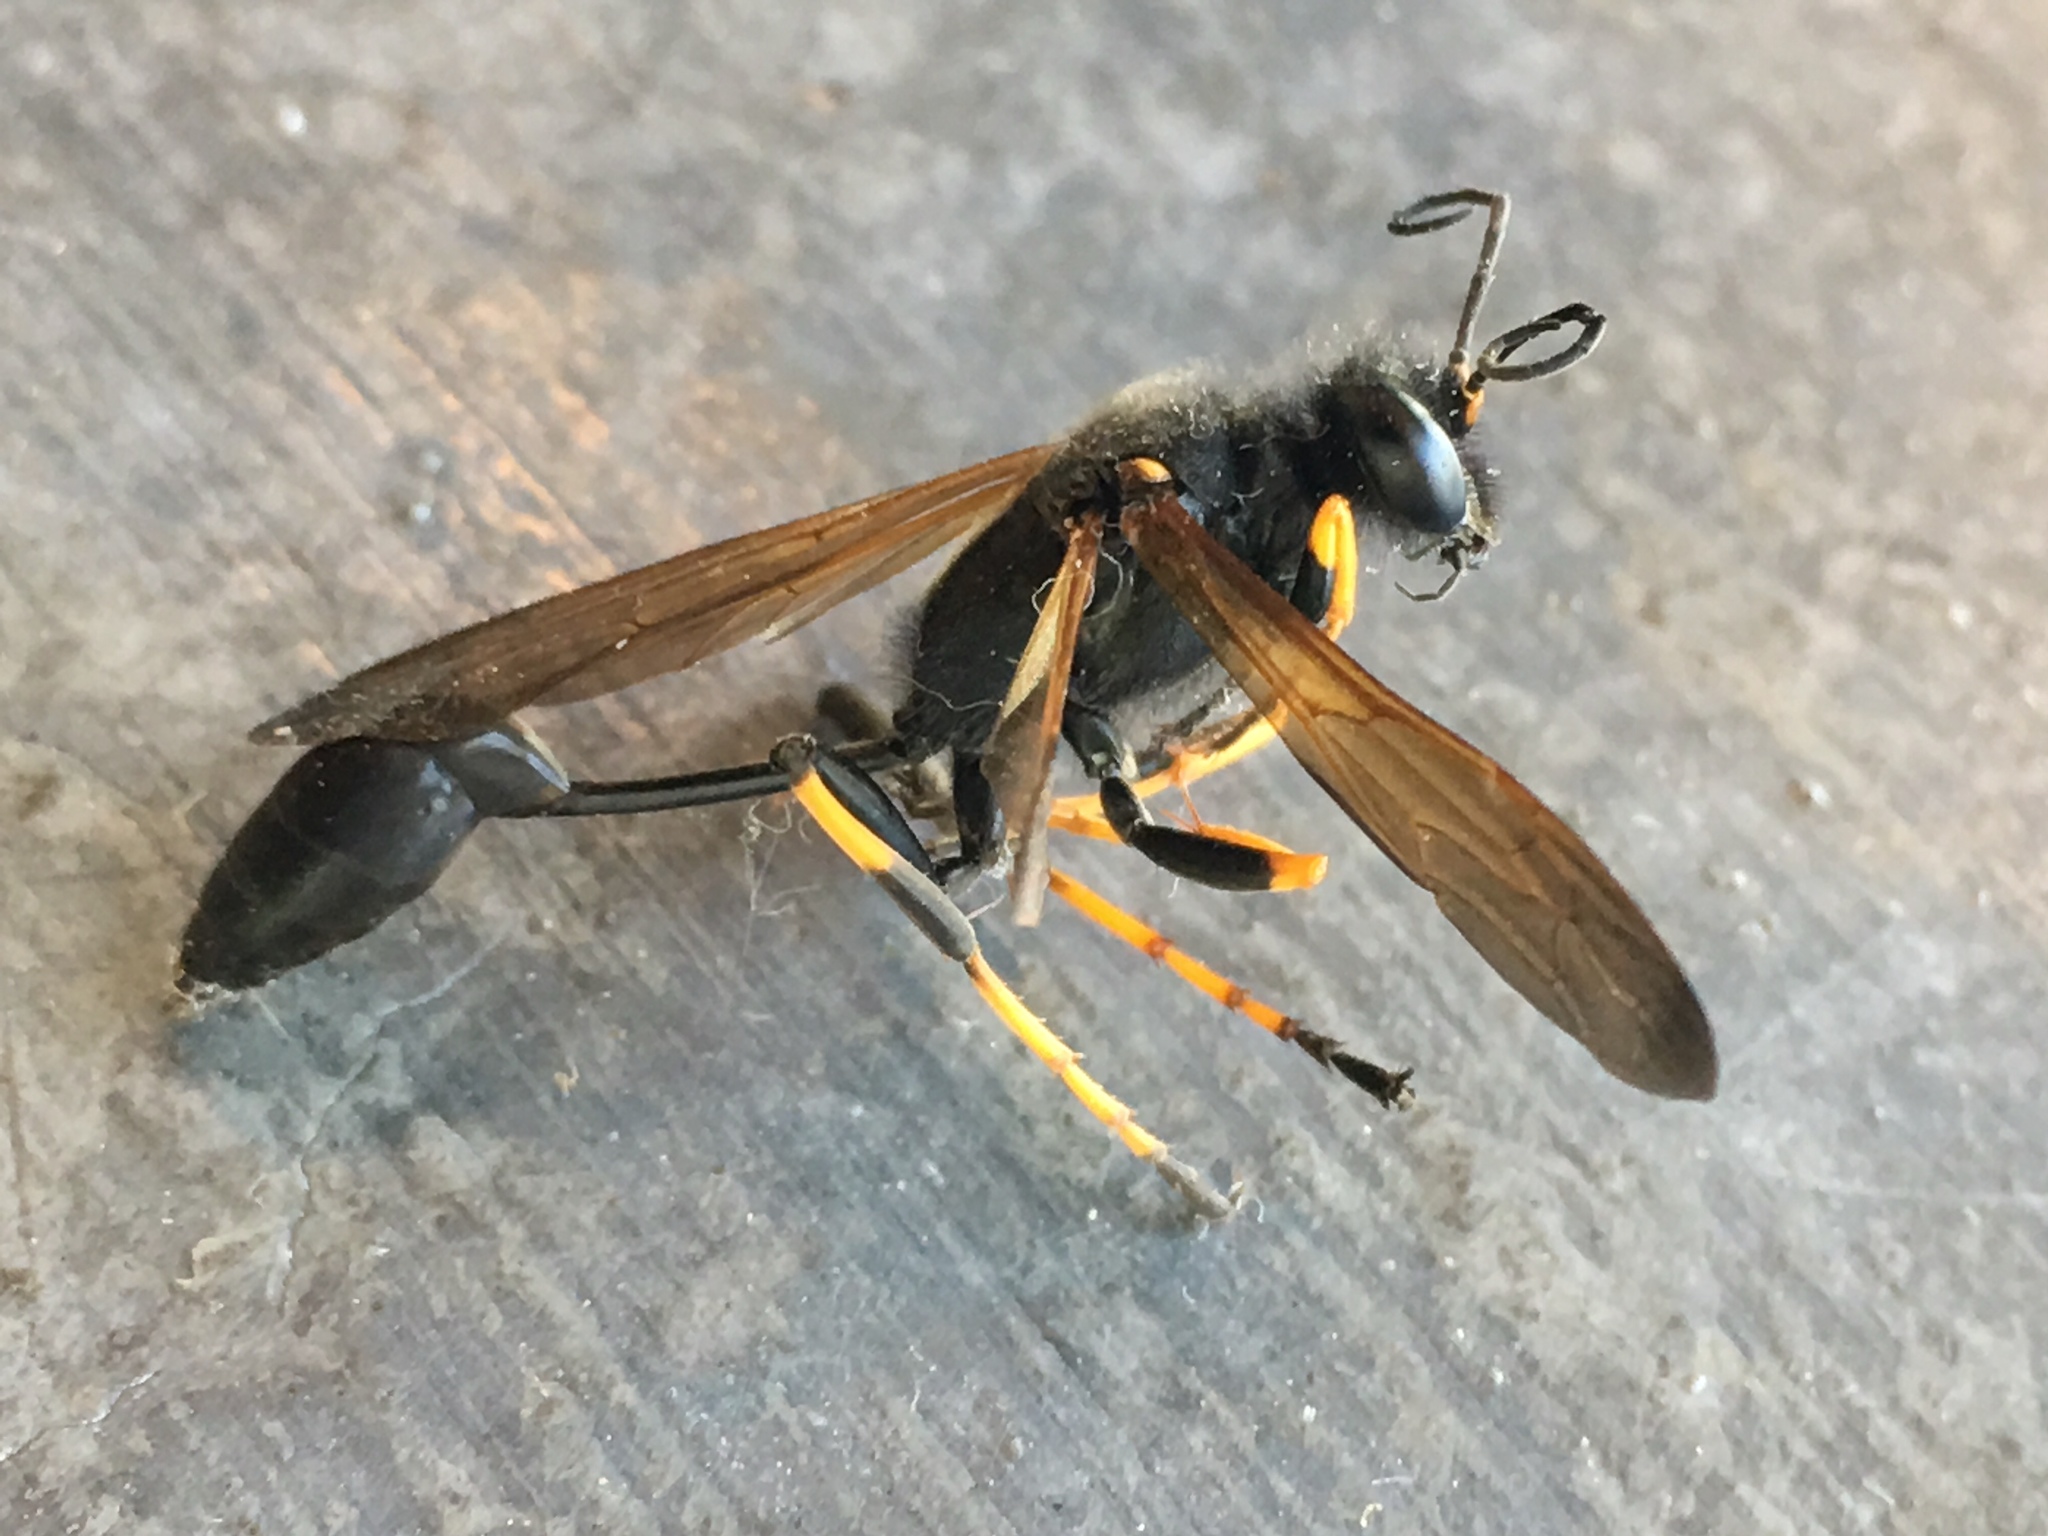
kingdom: Animalia
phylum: Arthropoda
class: Insecta
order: Hymenoptera
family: Sphecidae
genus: Sceliphron
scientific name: Sceliphron caementarium
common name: Mud dauber
